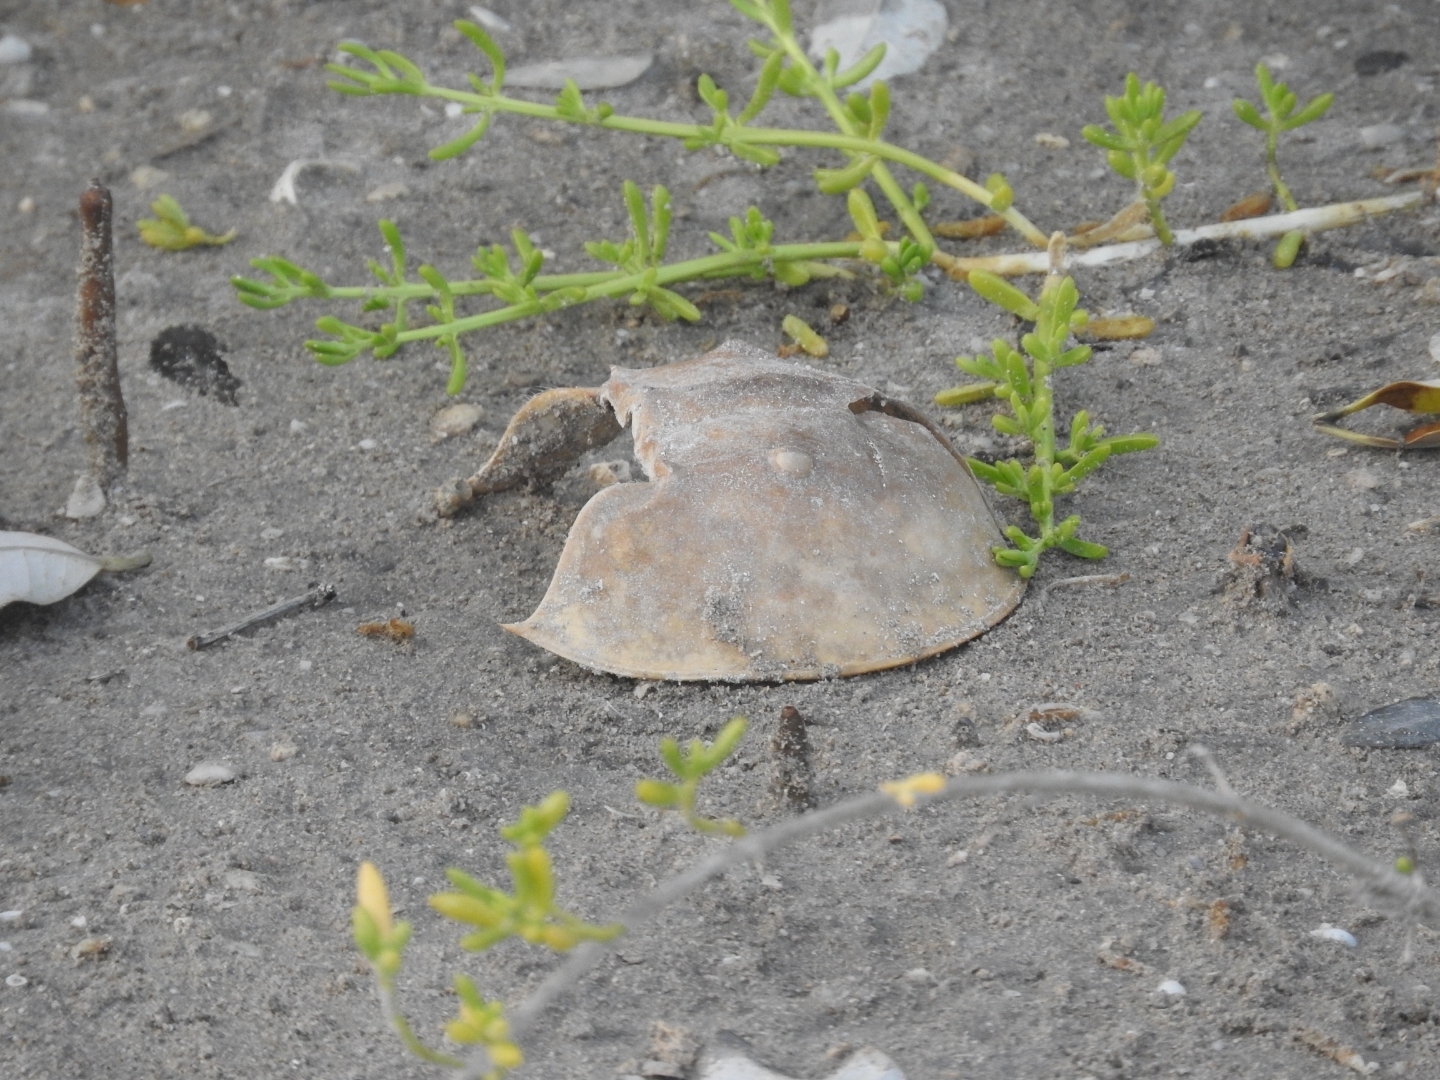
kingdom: Animalia
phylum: Arthropoda
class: Merostomata
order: Xiphosurida
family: Limulidae
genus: Limulus
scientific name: Limulus polyphemus
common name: Horseshoe crab
